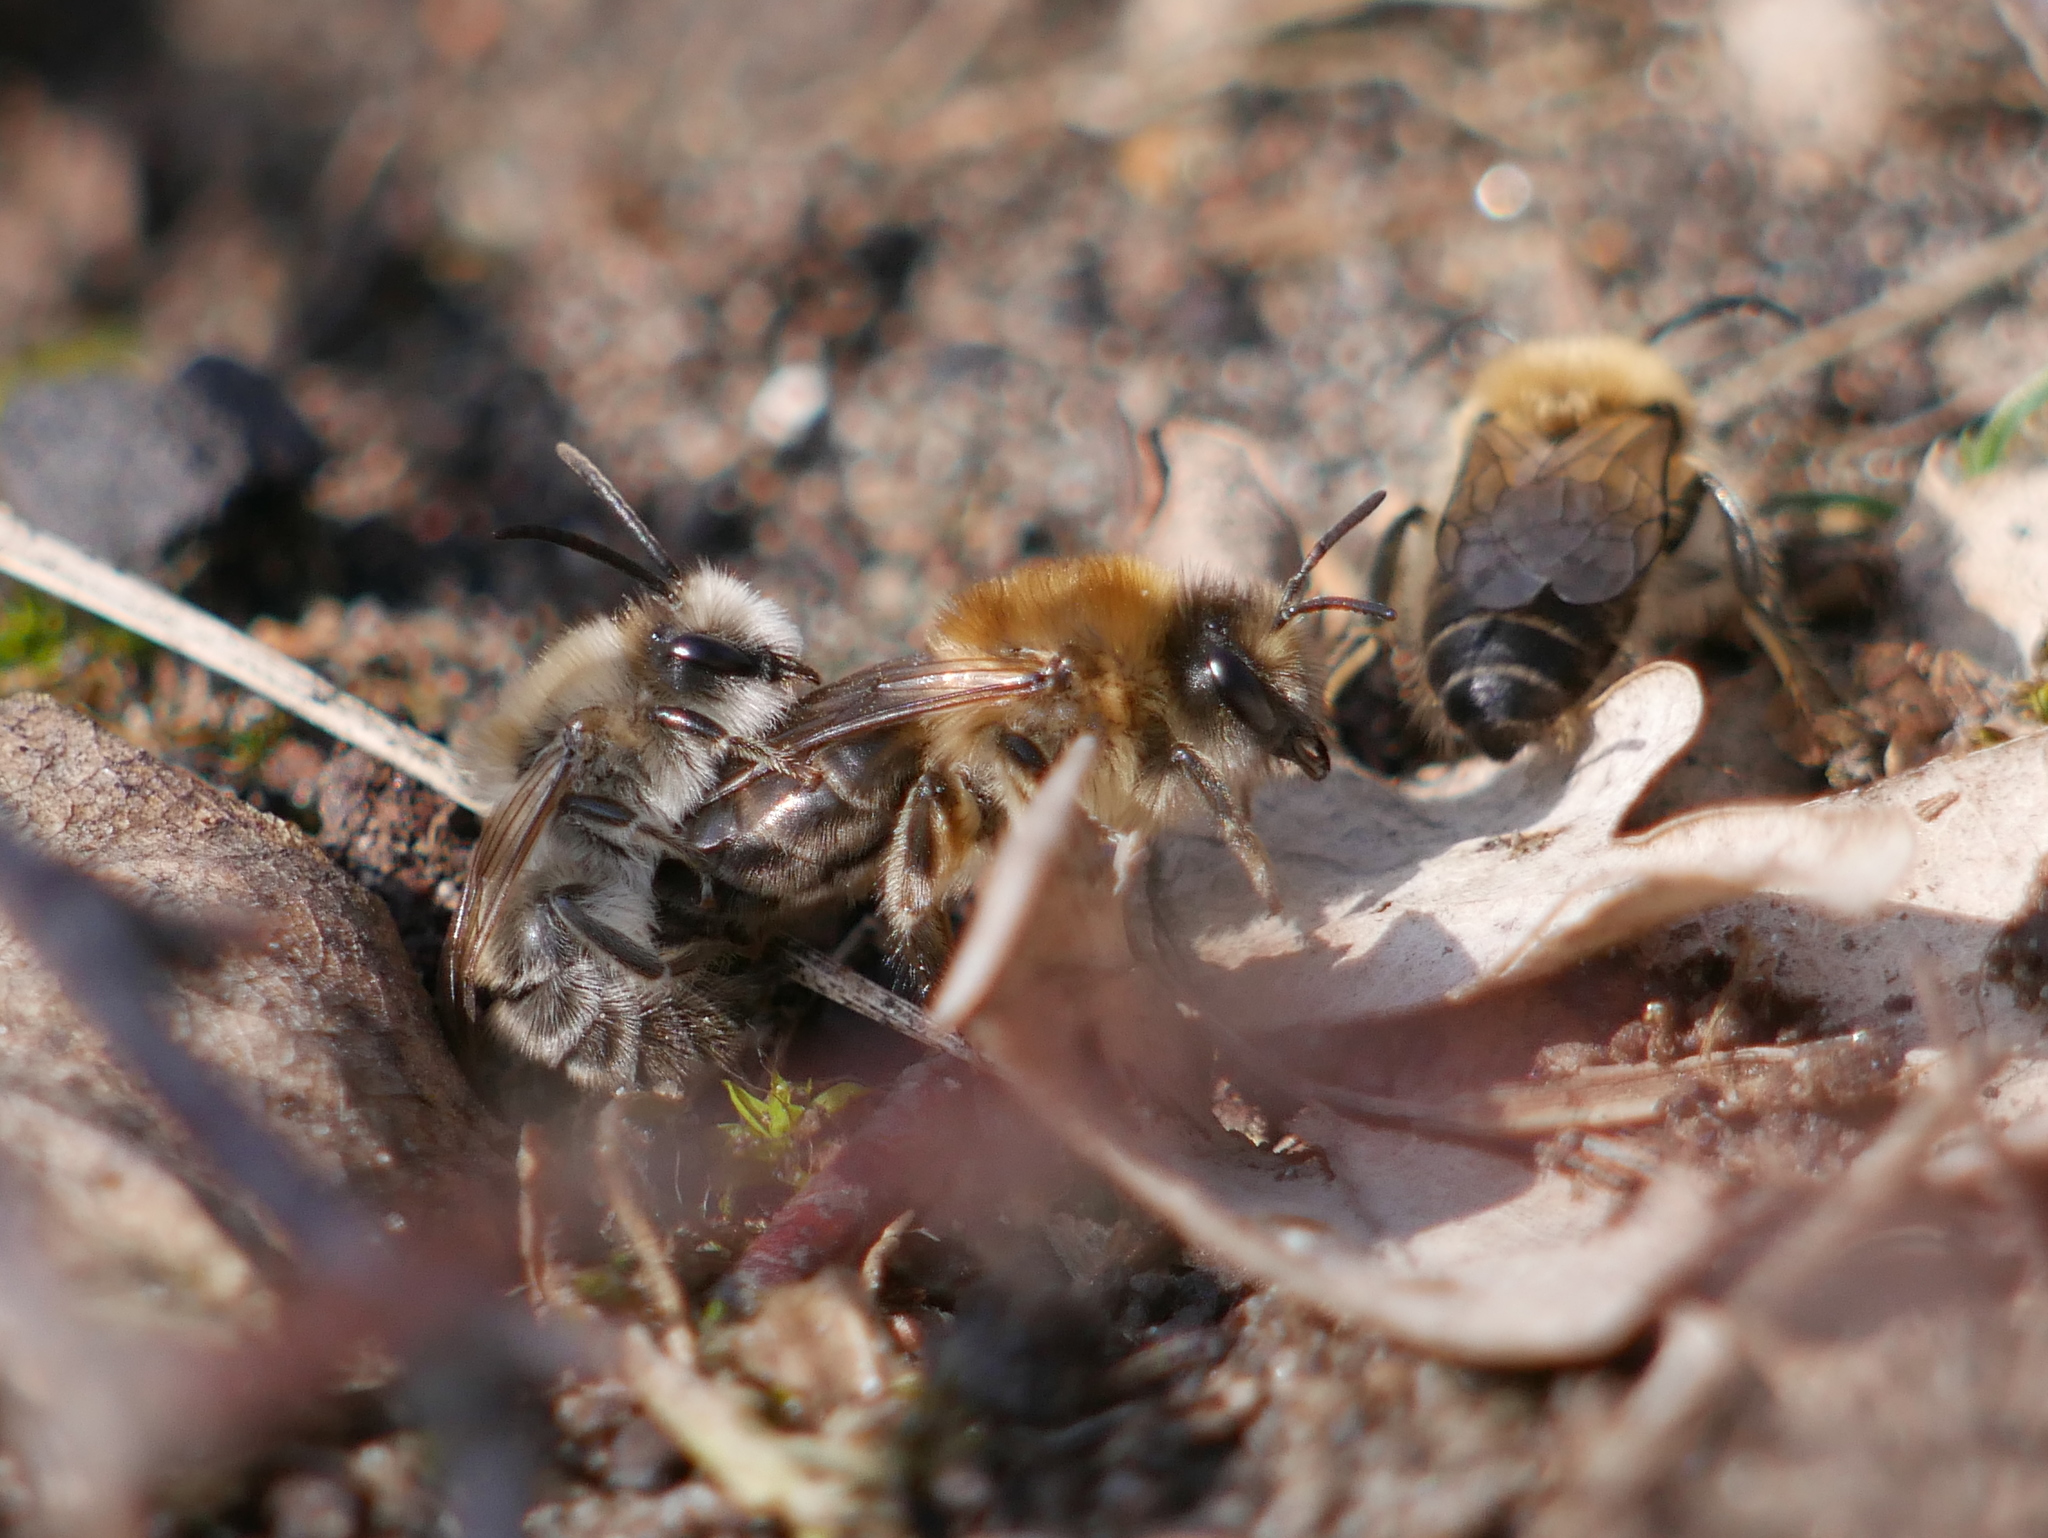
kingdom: Animalia
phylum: Arthropoda
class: Insecta
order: Hymenoptera
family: Colletidae
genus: Colletes
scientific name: Colletes cunicularius
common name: Early colletes
